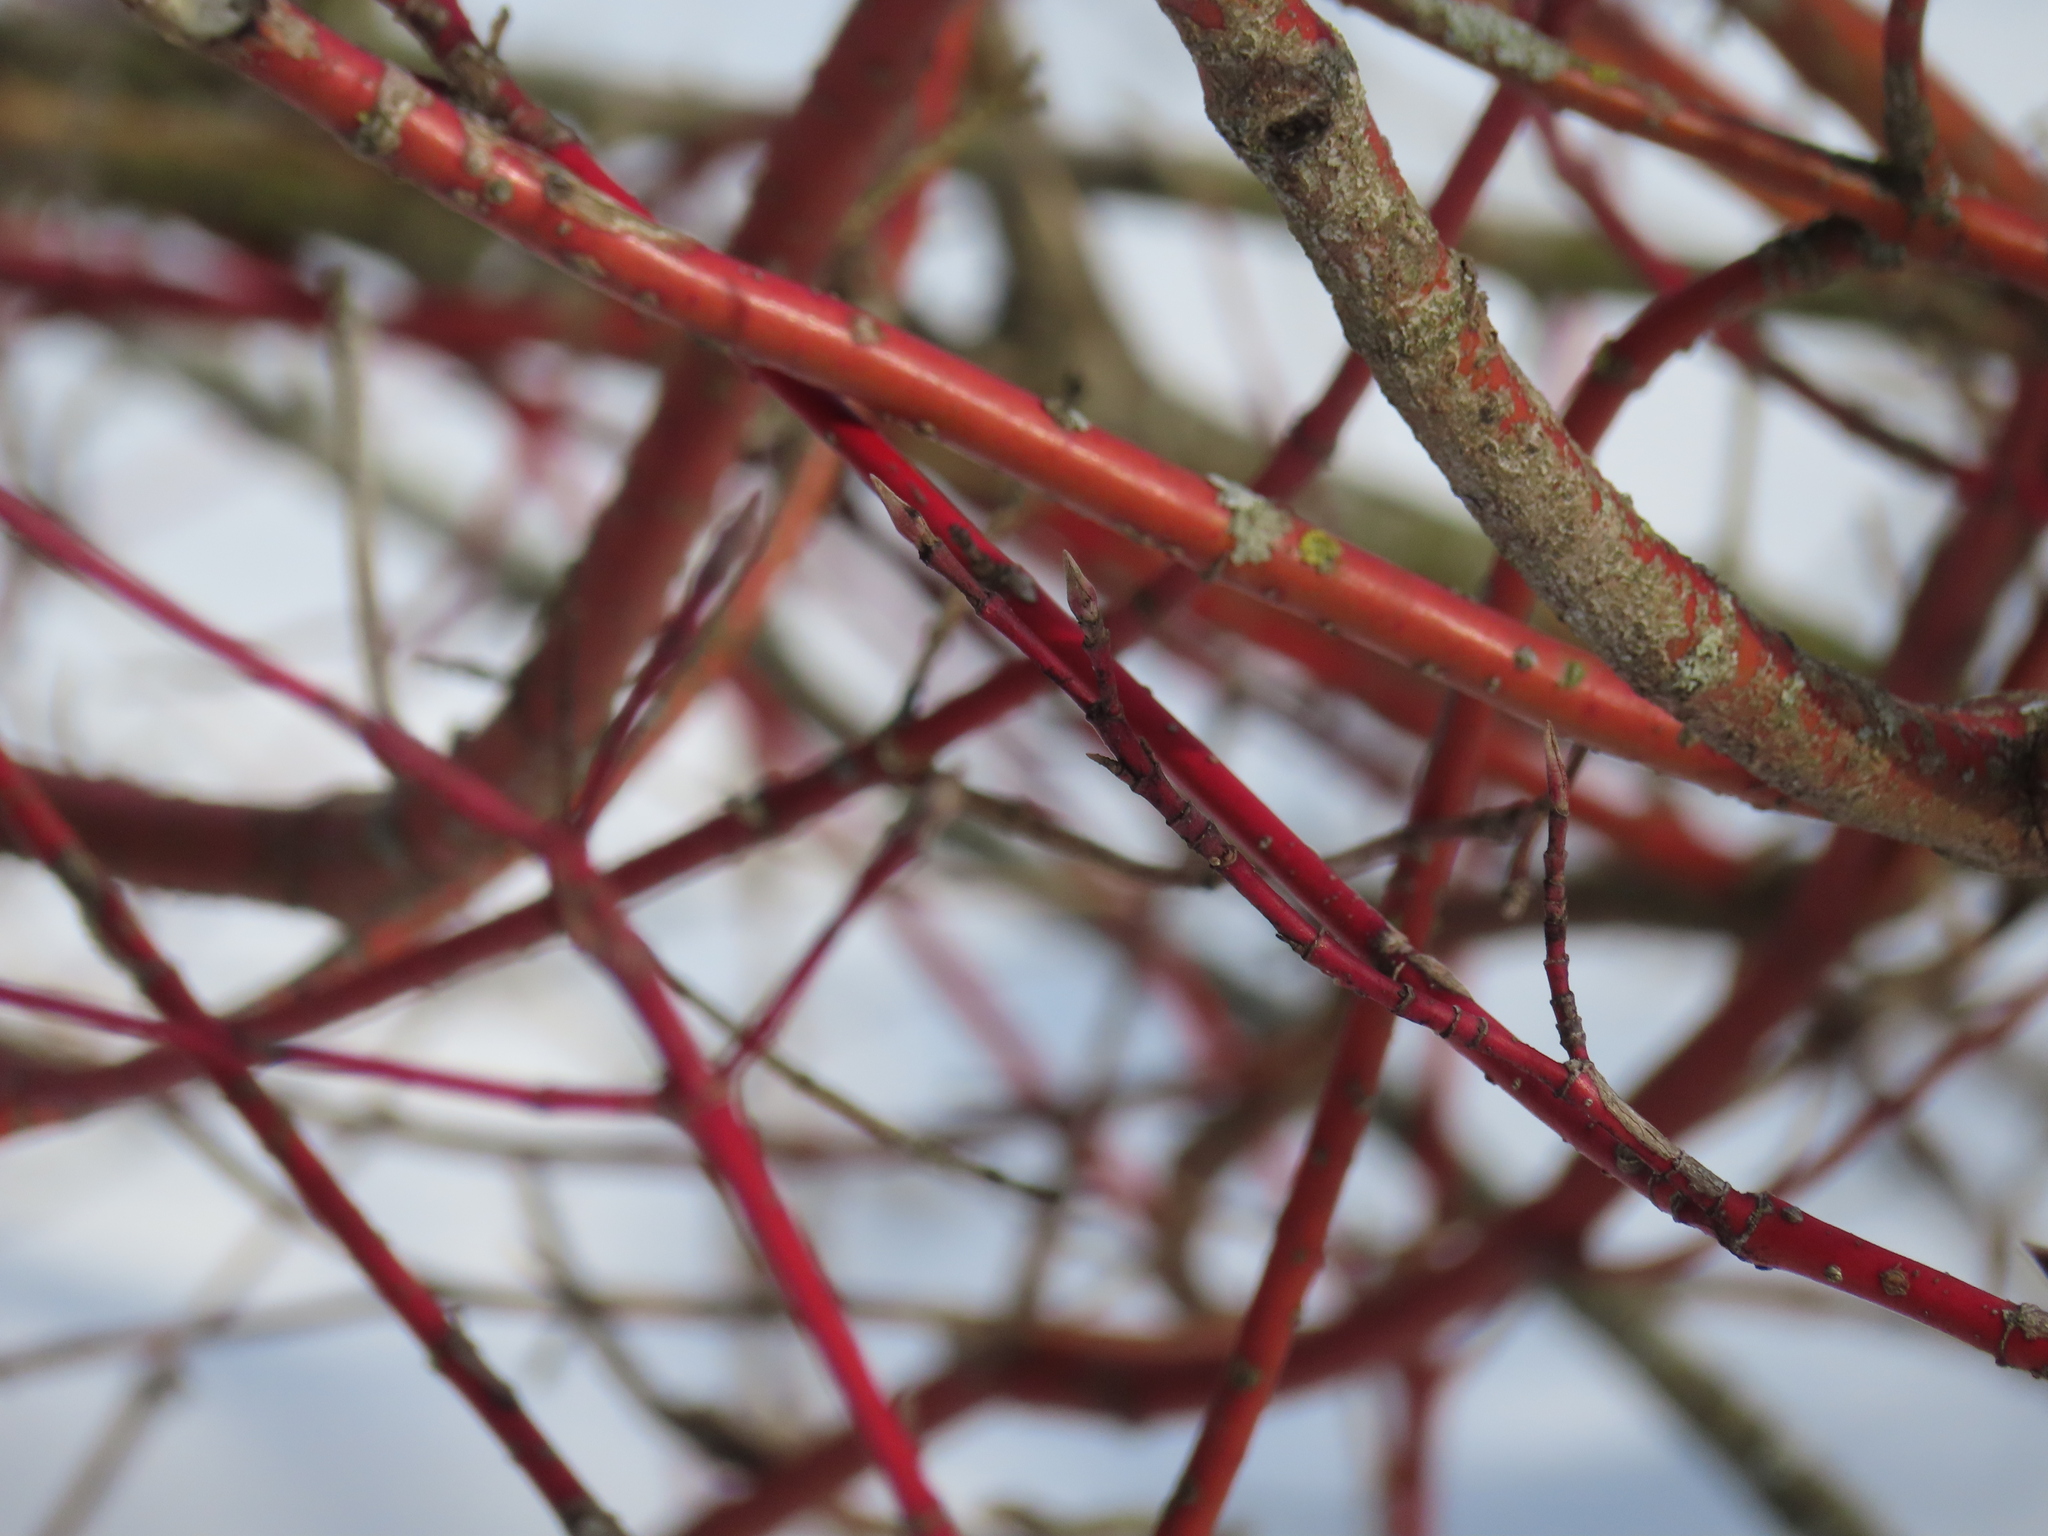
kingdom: Plantae
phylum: Tracheophyta
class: Magnoliopsida
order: Cornales
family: Cornaceae
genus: Cornus
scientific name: Cornus sericea
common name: Red-osier dogwood
